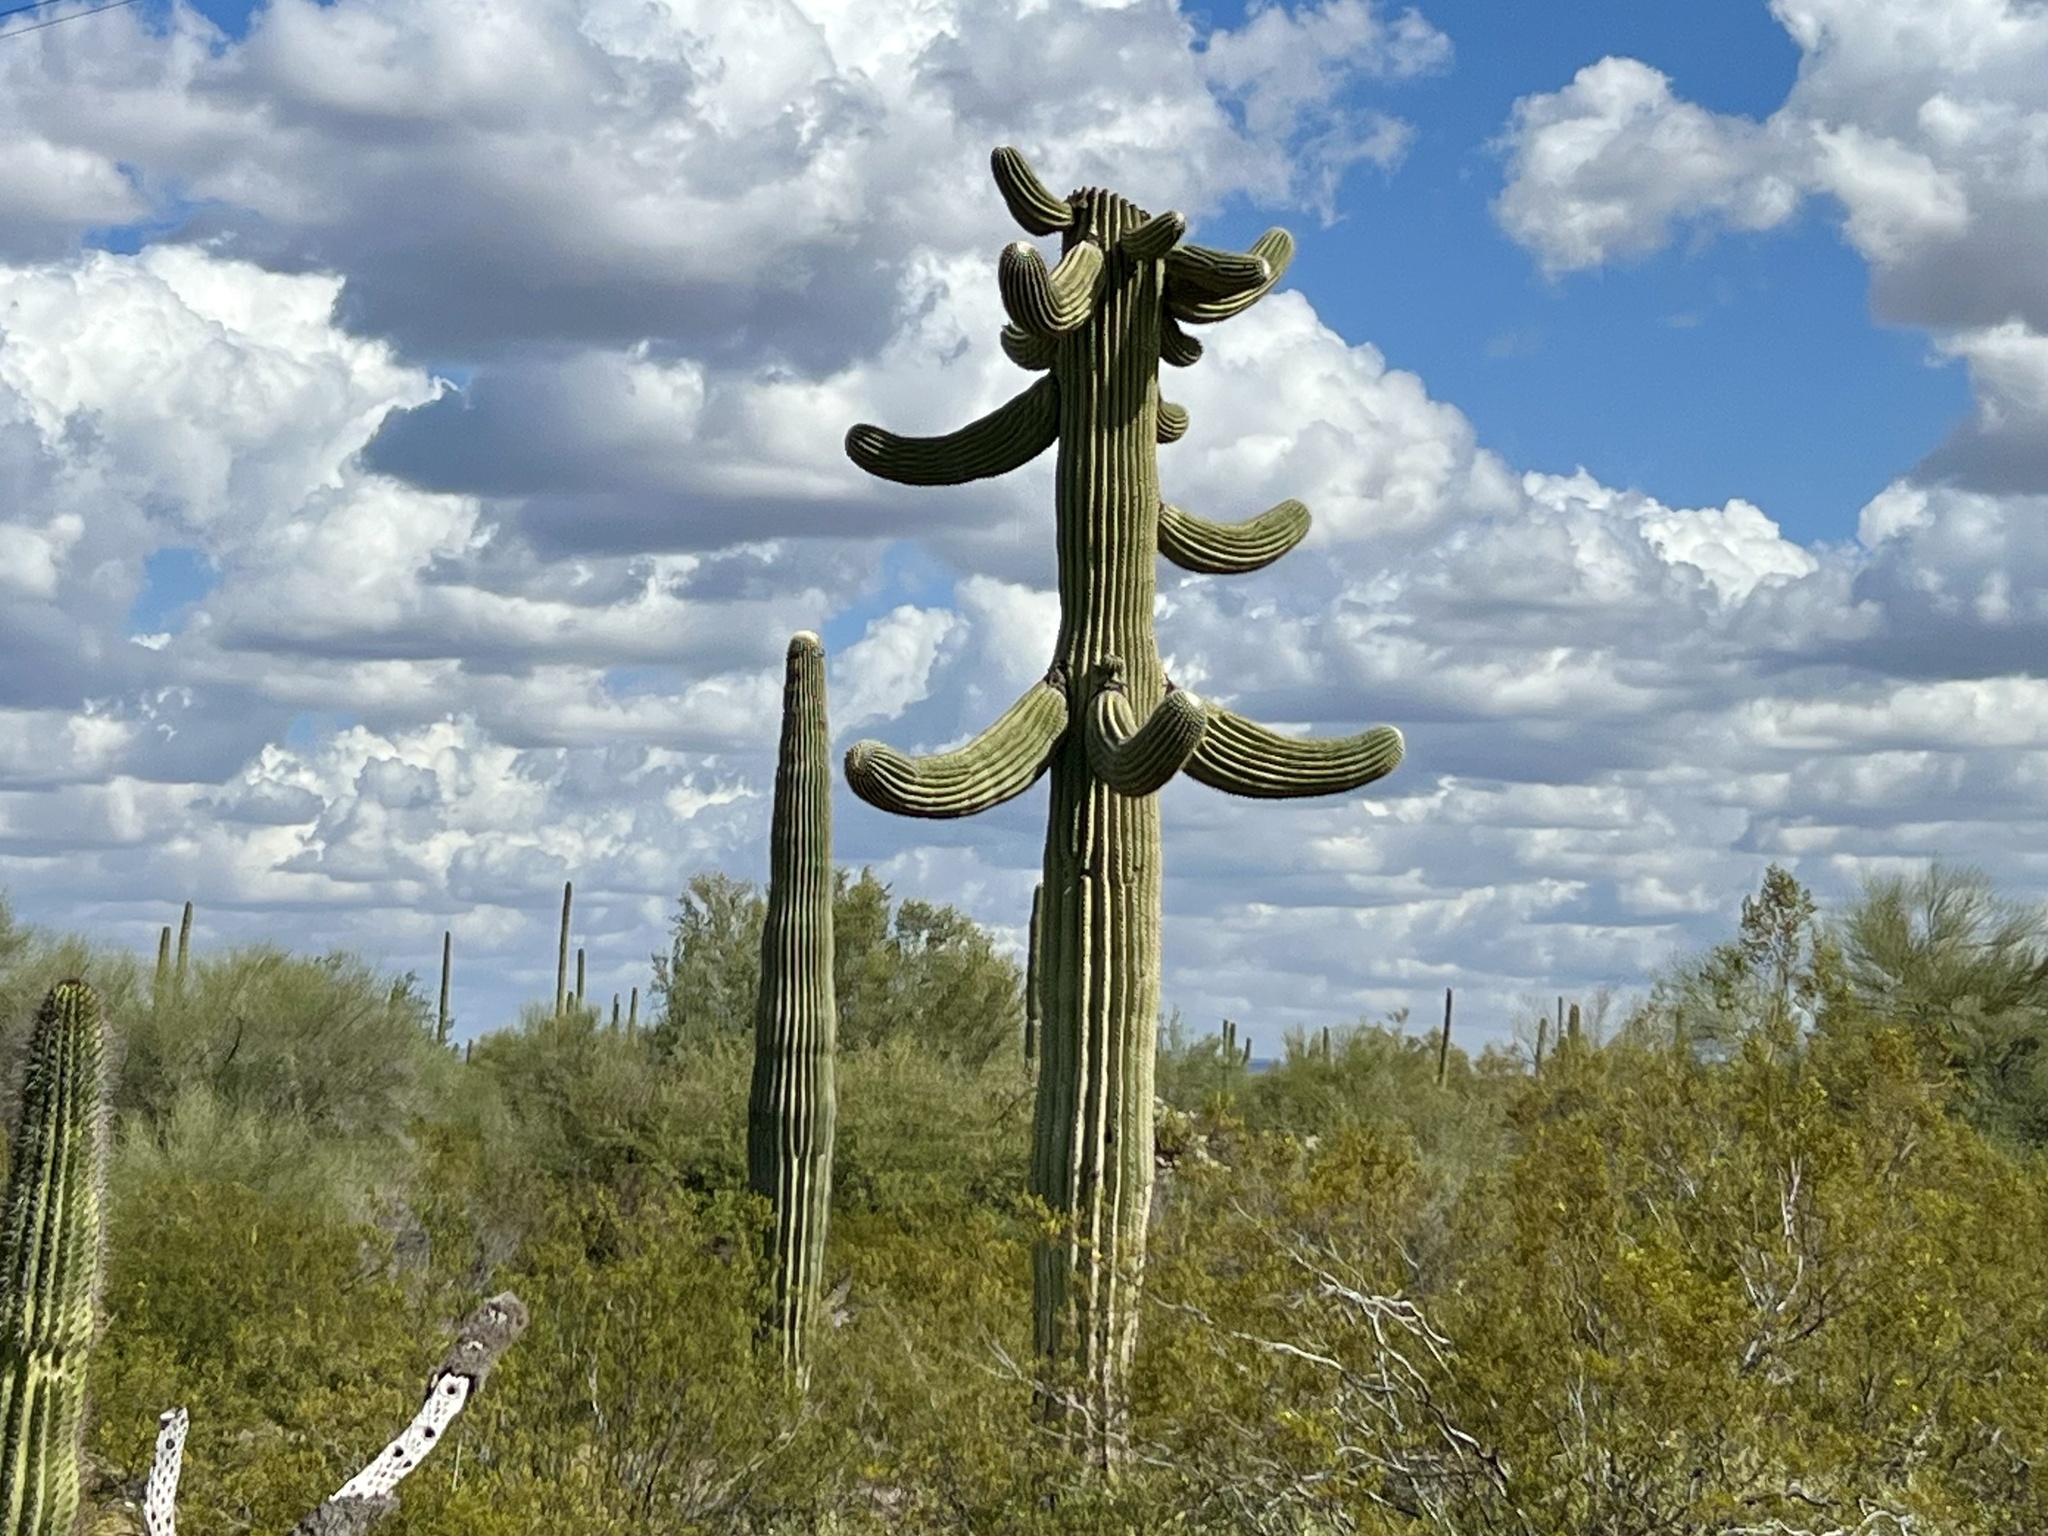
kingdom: Plantae
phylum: Tracheophyta
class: Magnoliopsida
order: Caryophyllales
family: Cactaceae
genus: Carnegiea
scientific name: Carnegiea gigantea
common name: Saguaro
